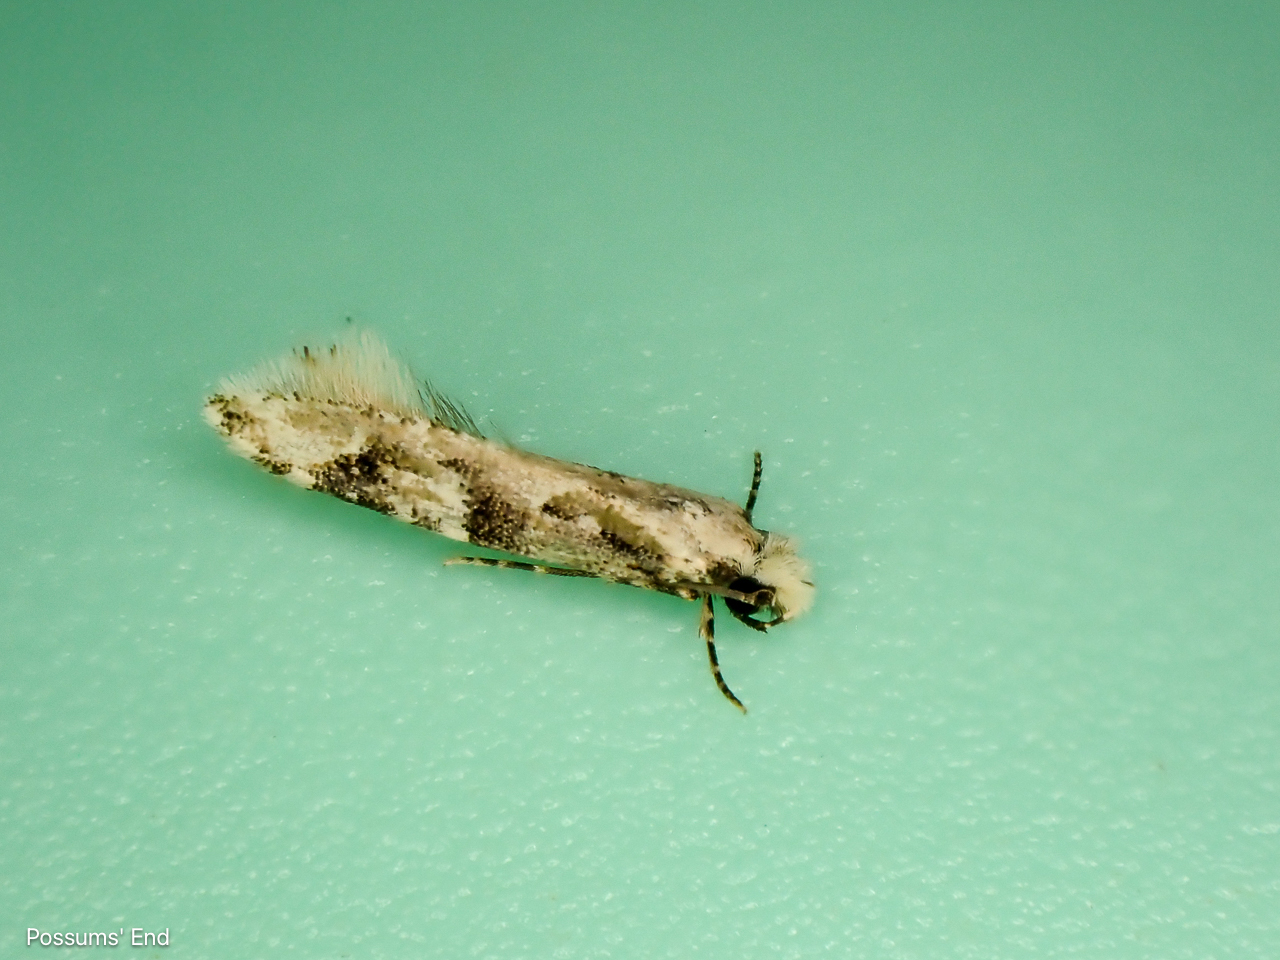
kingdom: Animalia
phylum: Arthropoda
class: Insecta
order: Lepidoptera
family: Tineidae
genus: Crypsitricha
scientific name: Crypsitricha mesotypa
